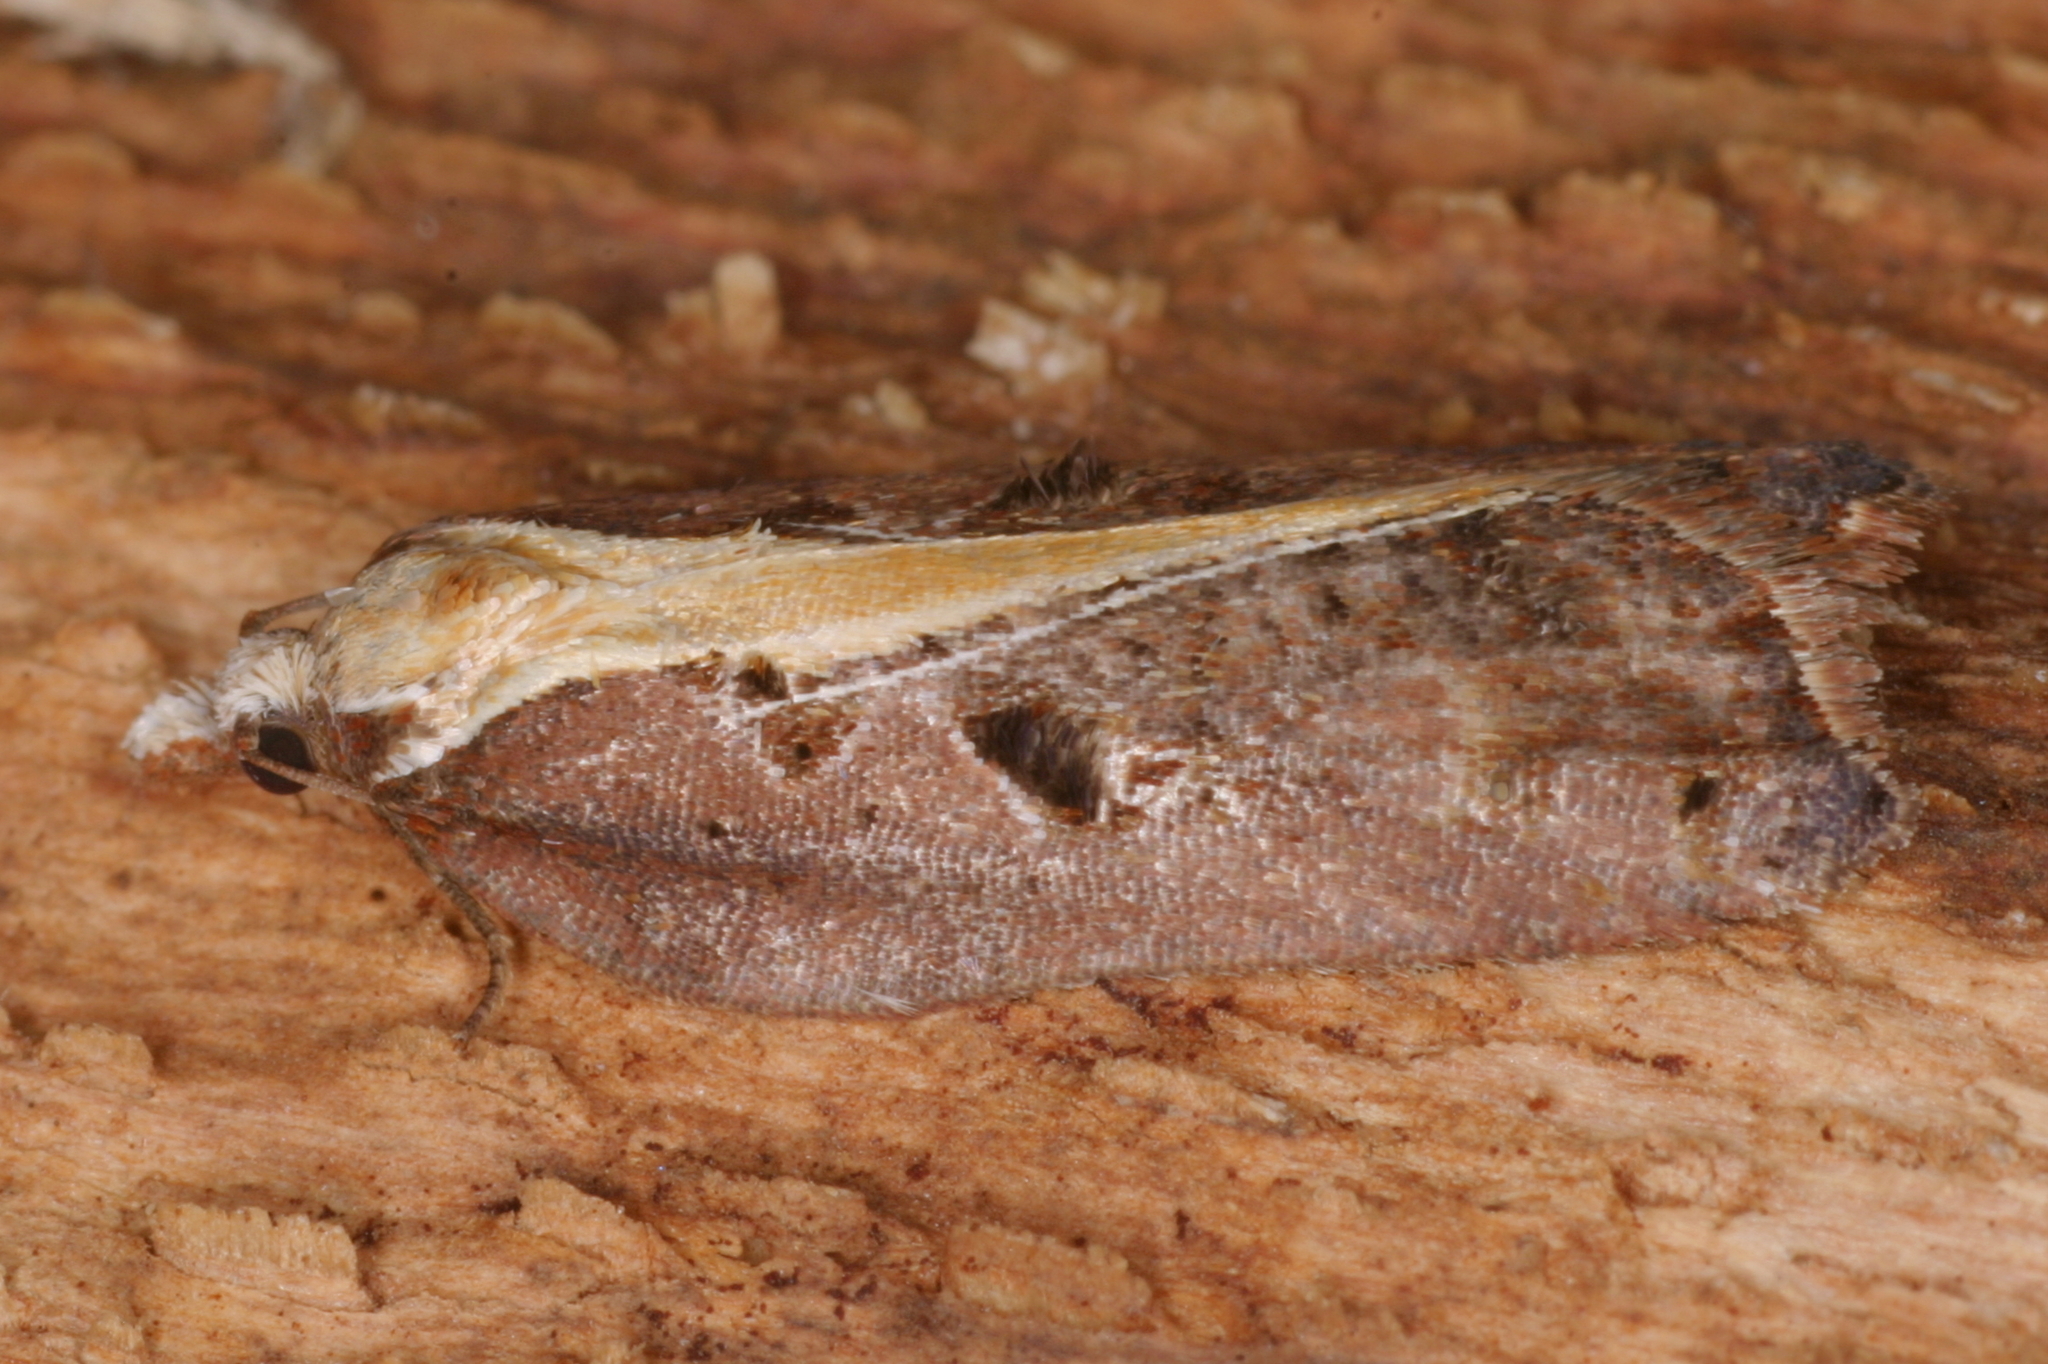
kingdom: Animalia
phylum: Arthropoda
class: Insecta
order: Lepidoptera
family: Tortricidae
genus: Acleris
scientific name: Acleris cristana
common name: Tufted button
